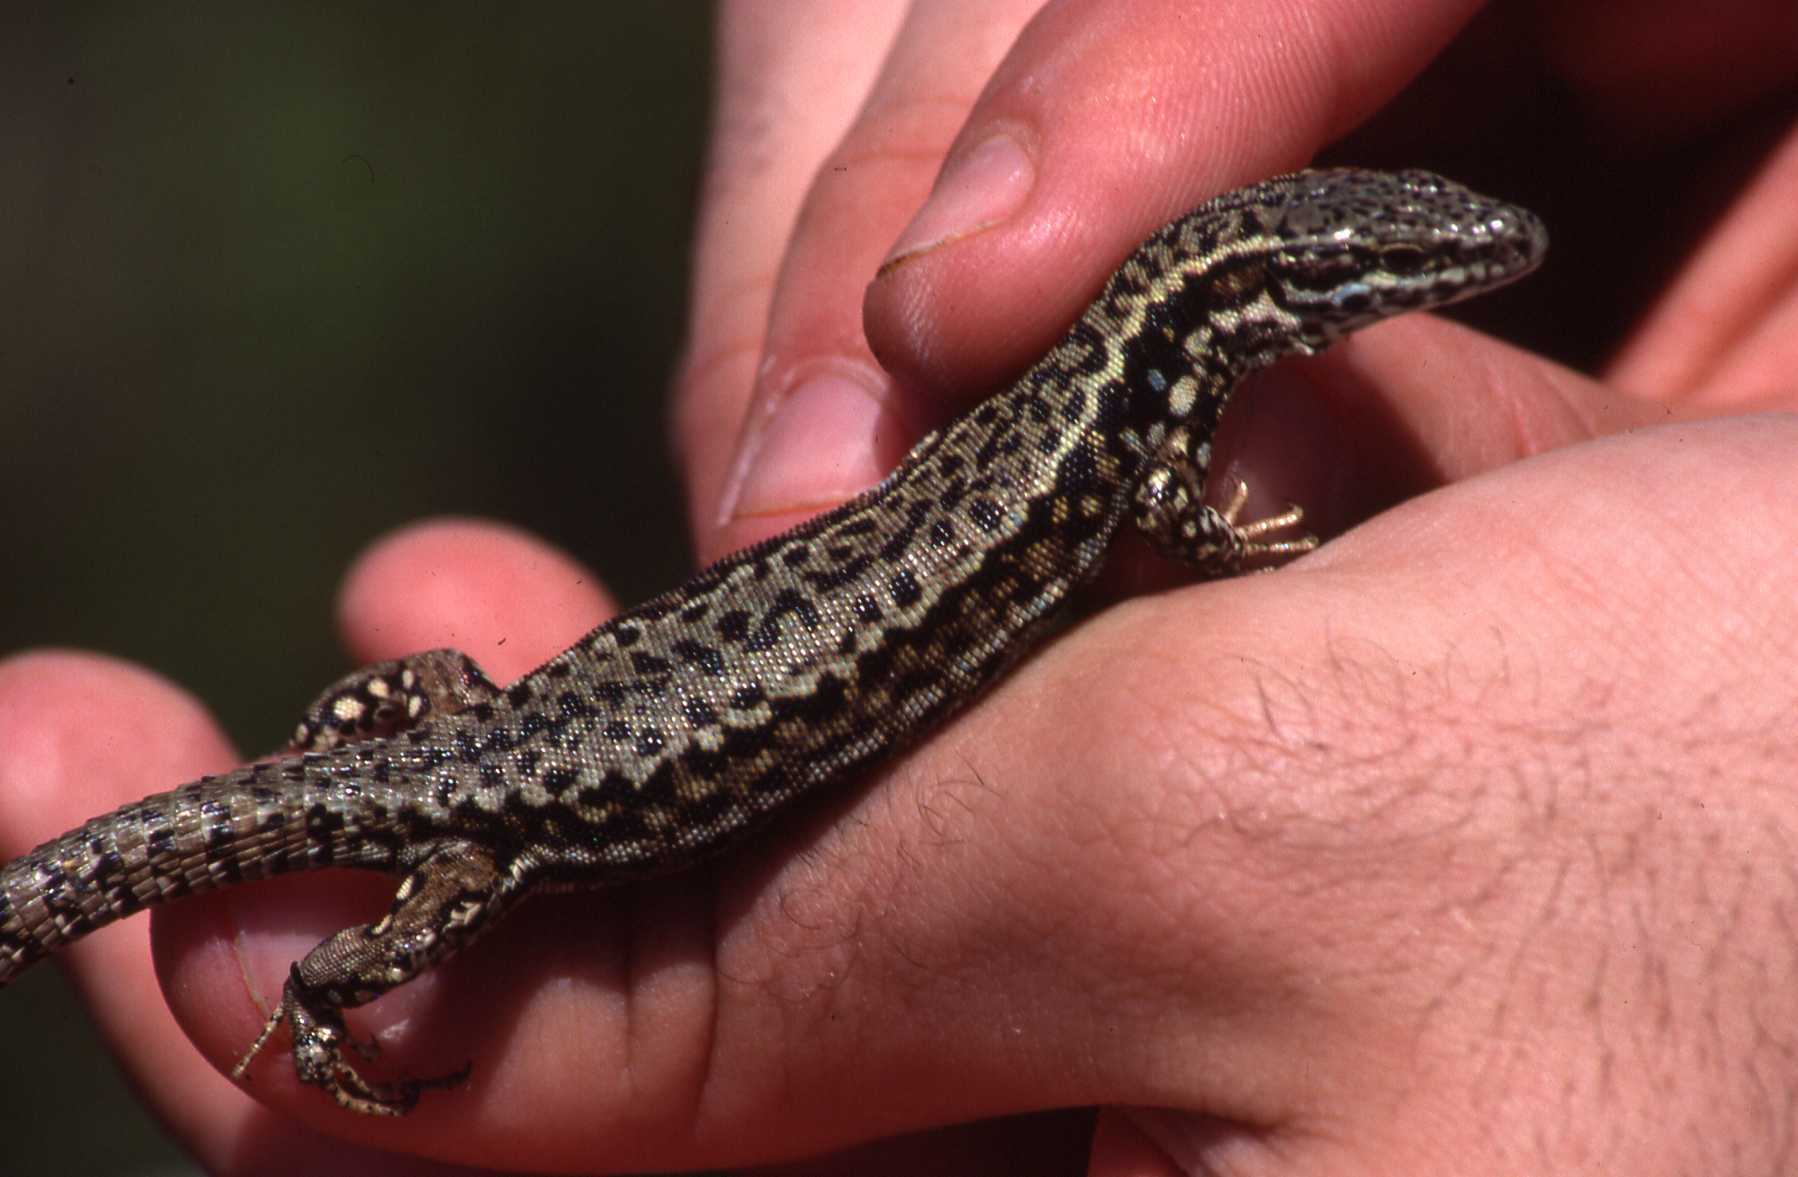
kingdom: Animalia
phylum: Chordata
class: Squamata
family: Lacertidae
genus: Podarcis
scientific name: Podarcis muralis
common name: Common wall lizard
